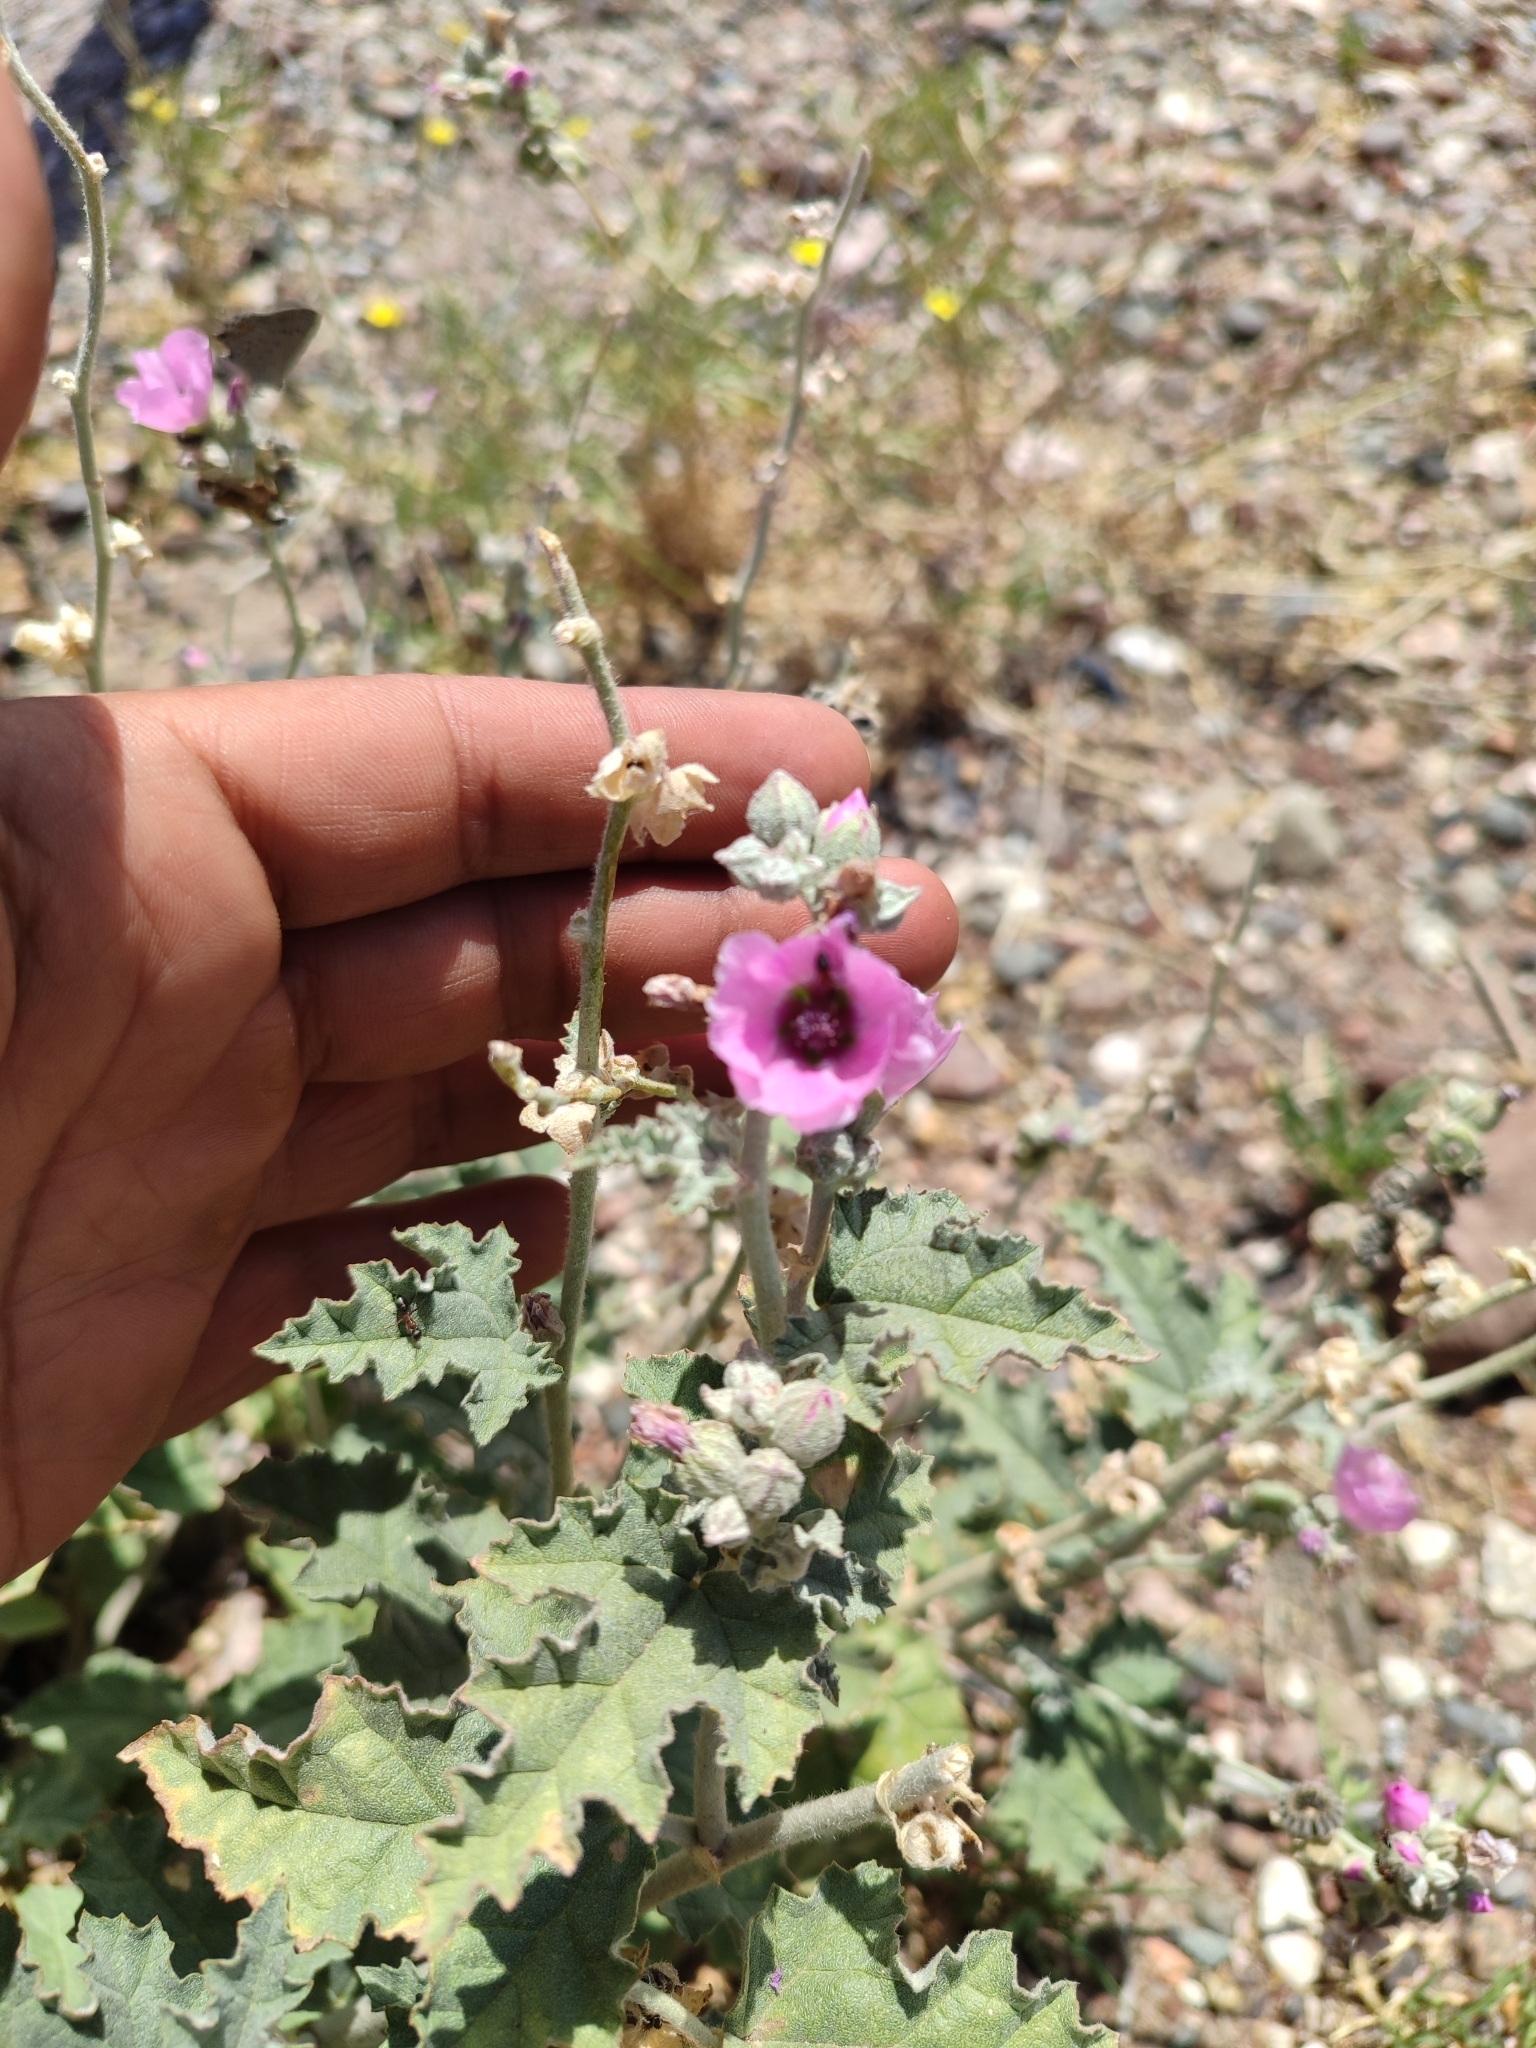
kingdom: Plantae
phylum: Tracheophyta
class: Magnoliopsida
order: Malvales
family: Malvaceae
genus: Sphaeralcea
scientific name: Sphaeralcea mendocina
